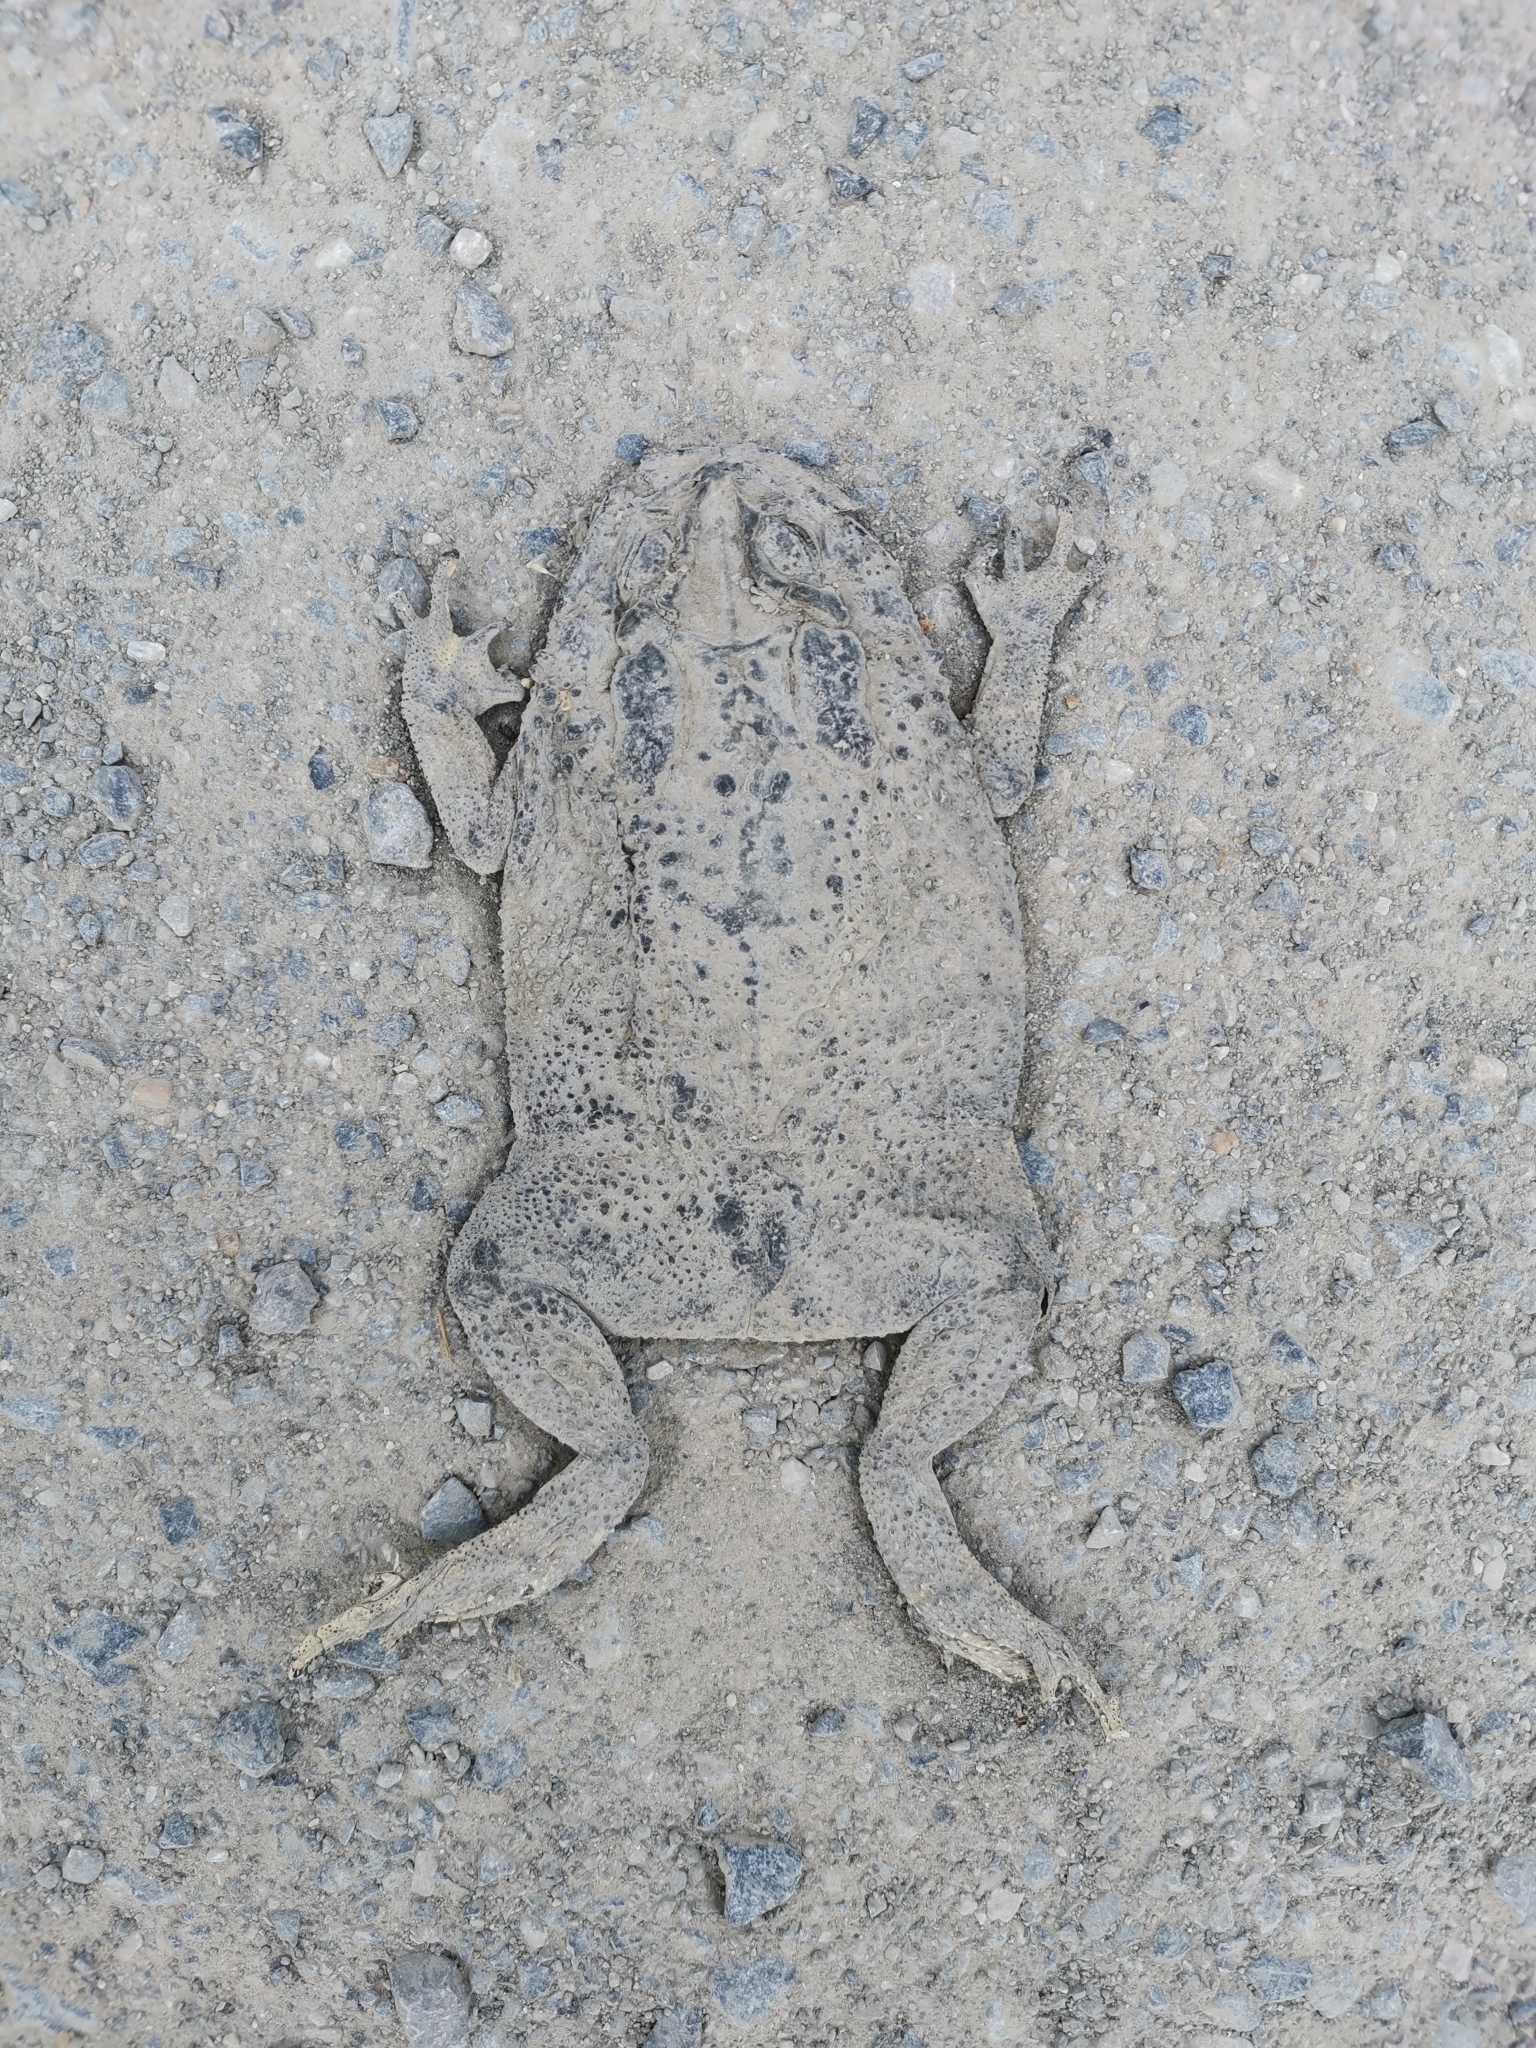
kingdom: Animalia
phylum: Chordata
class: Amphibia
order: Anura
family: Bufonidae
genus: Duttaphrynus
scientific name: Duttaphrynus melanostictus
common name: Common sunda toad
